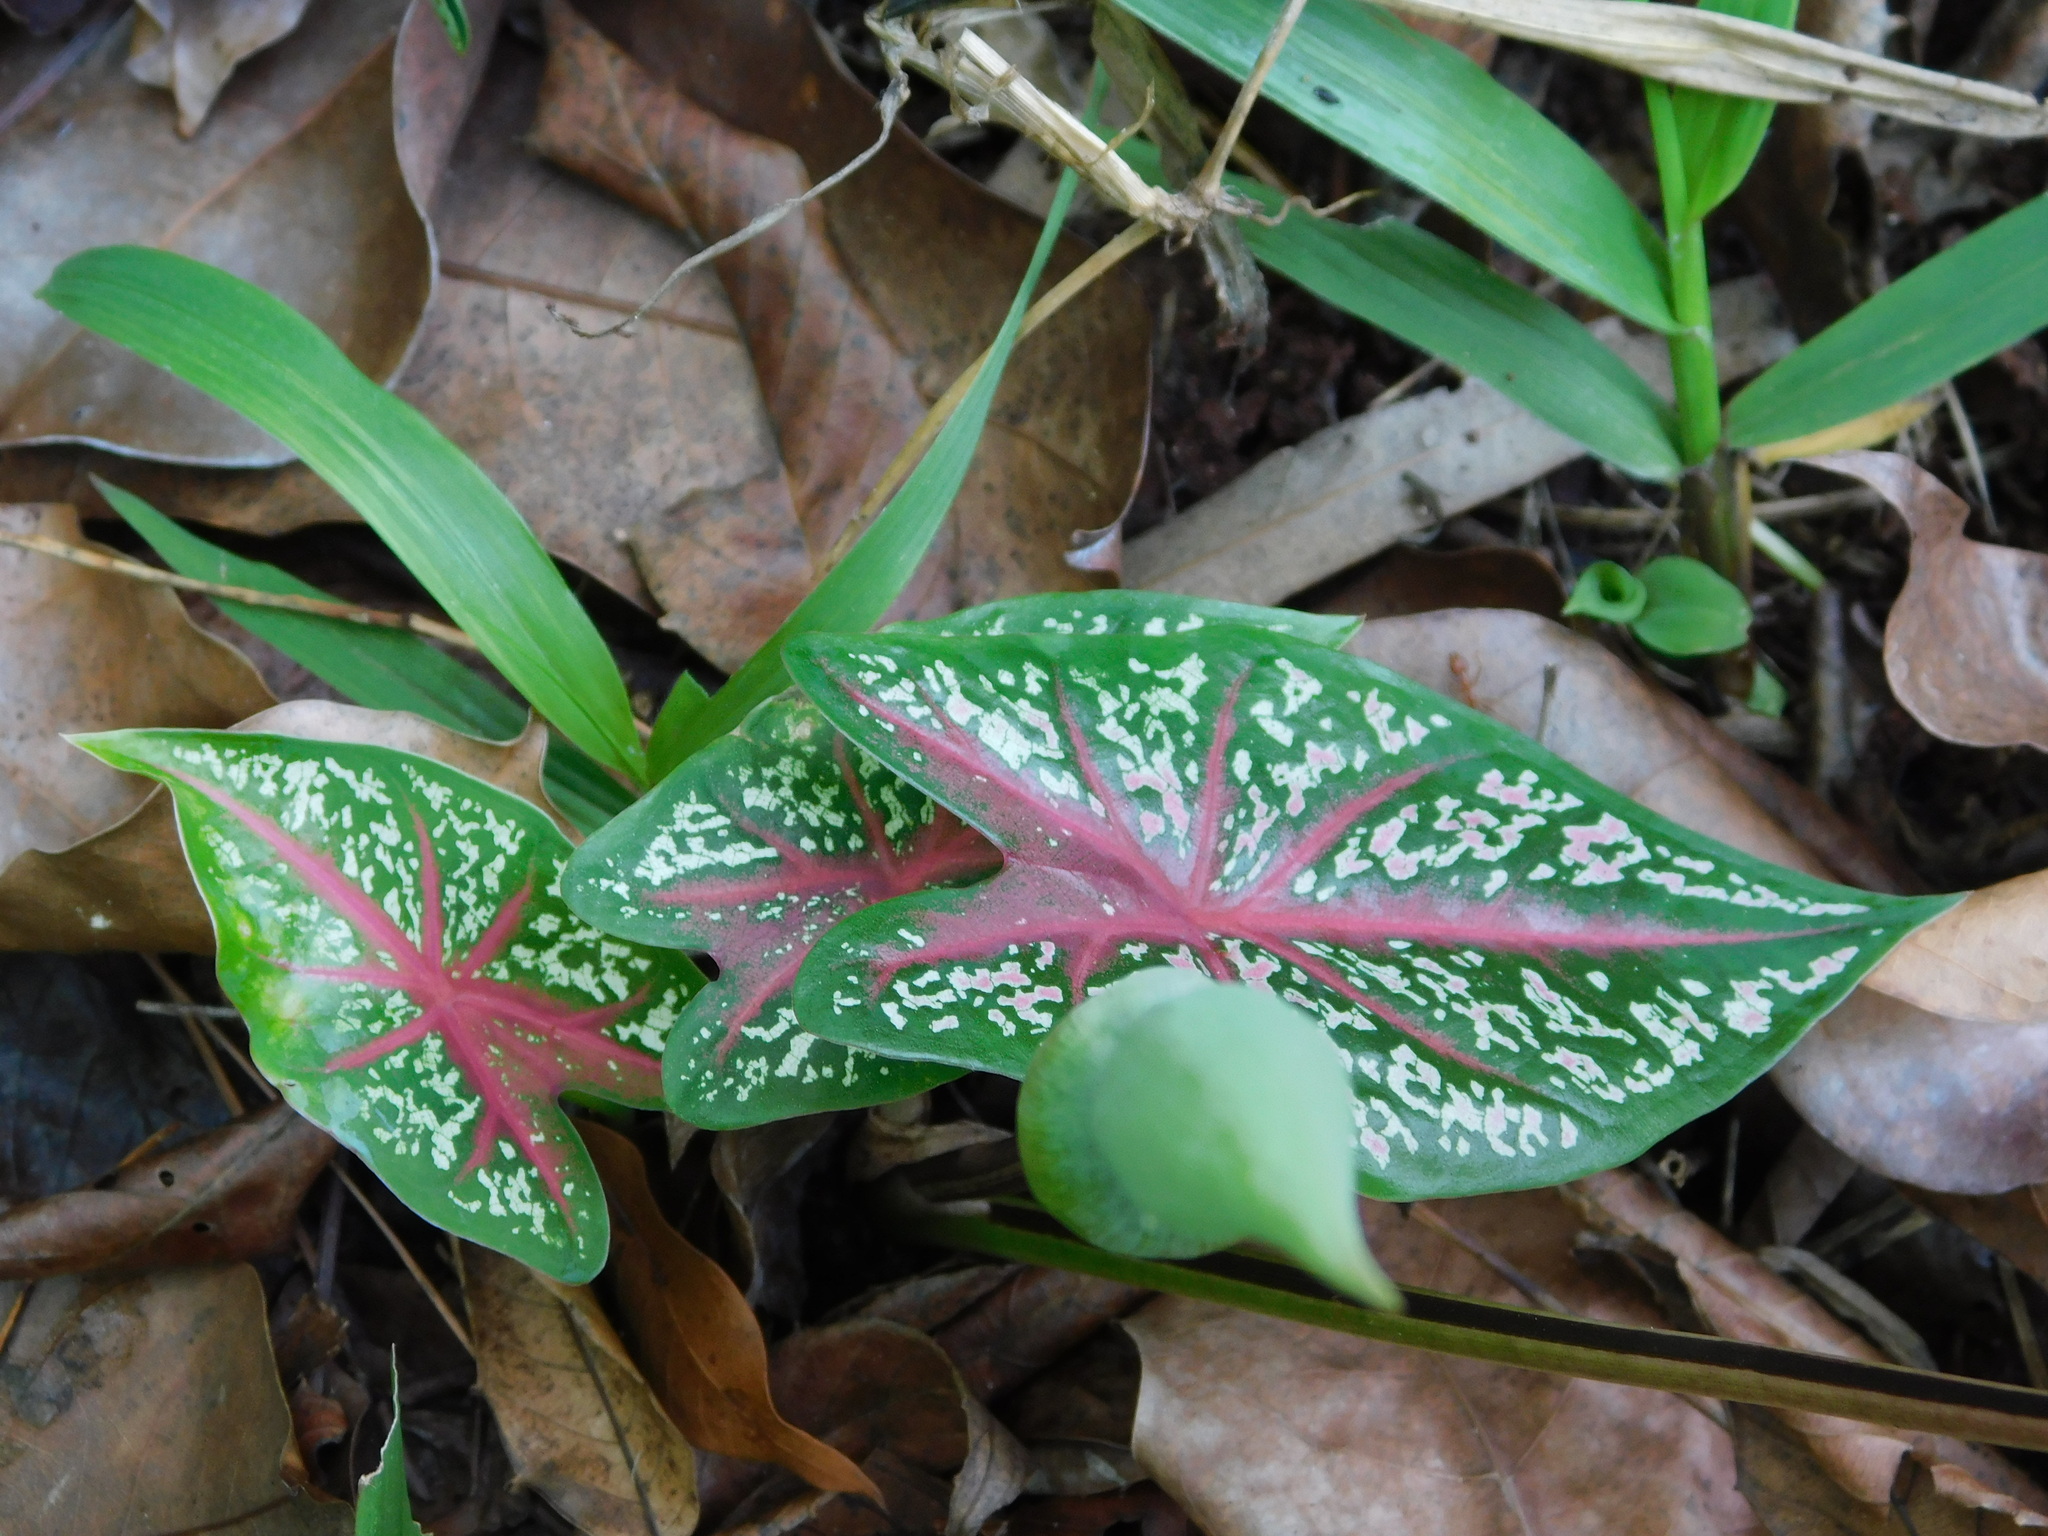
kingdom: Plantae
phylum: Tracheophyta
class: Liliopsida
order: Alismatales
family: Araceae
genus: Caladium
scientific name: Caladium bicolor
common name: Artist's pallet
